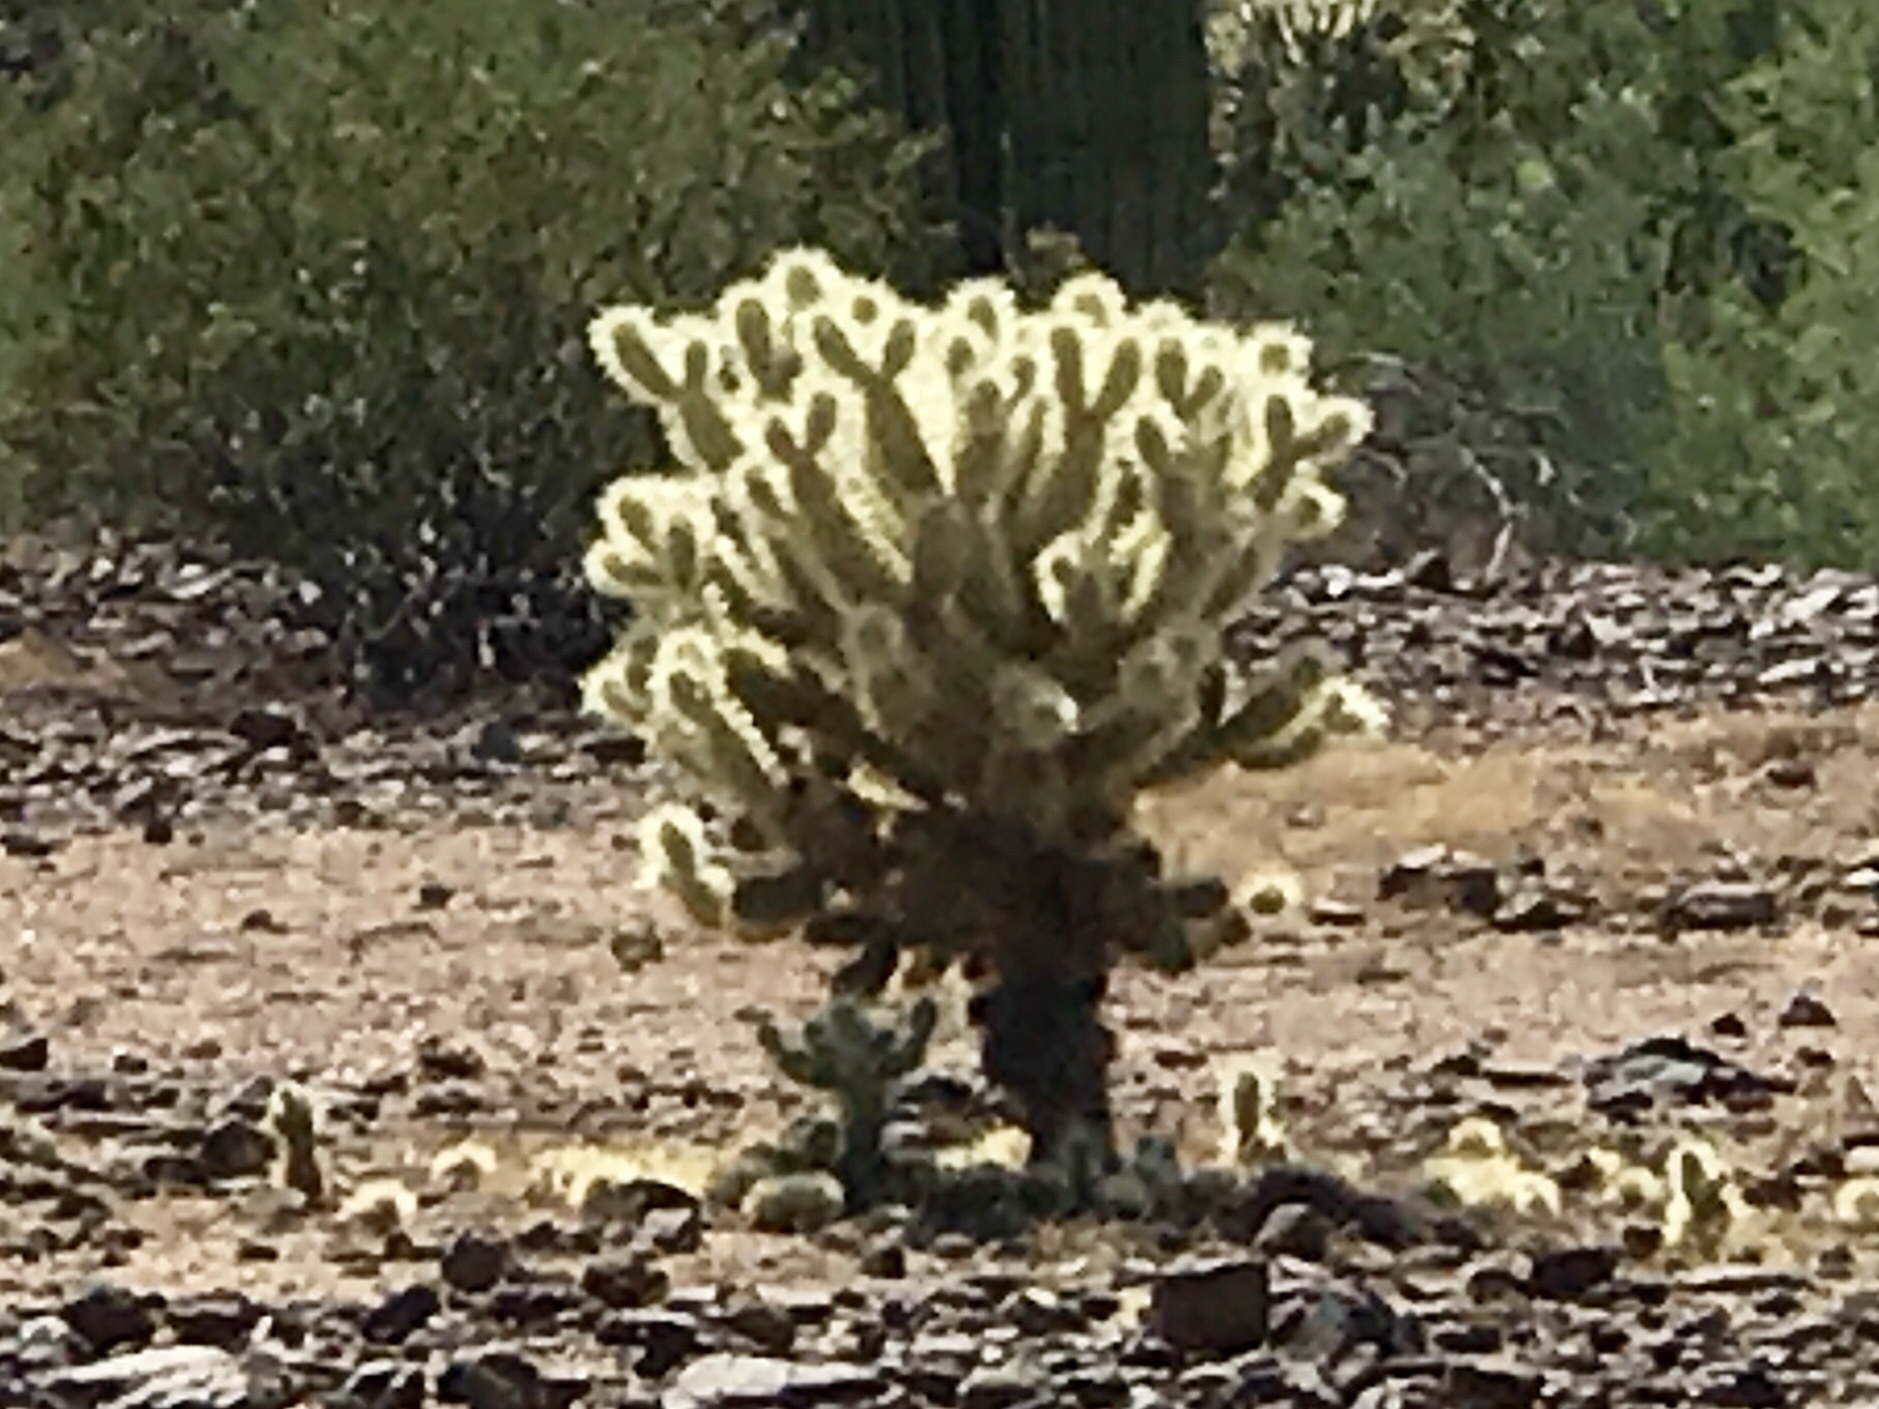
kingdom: Plantae
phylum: Tracheophyta
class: Magnoliopsida
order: Caryophyllales
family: Cactaceae
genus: Cylindropuntia
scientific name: Cylindropuntia fosbergii
